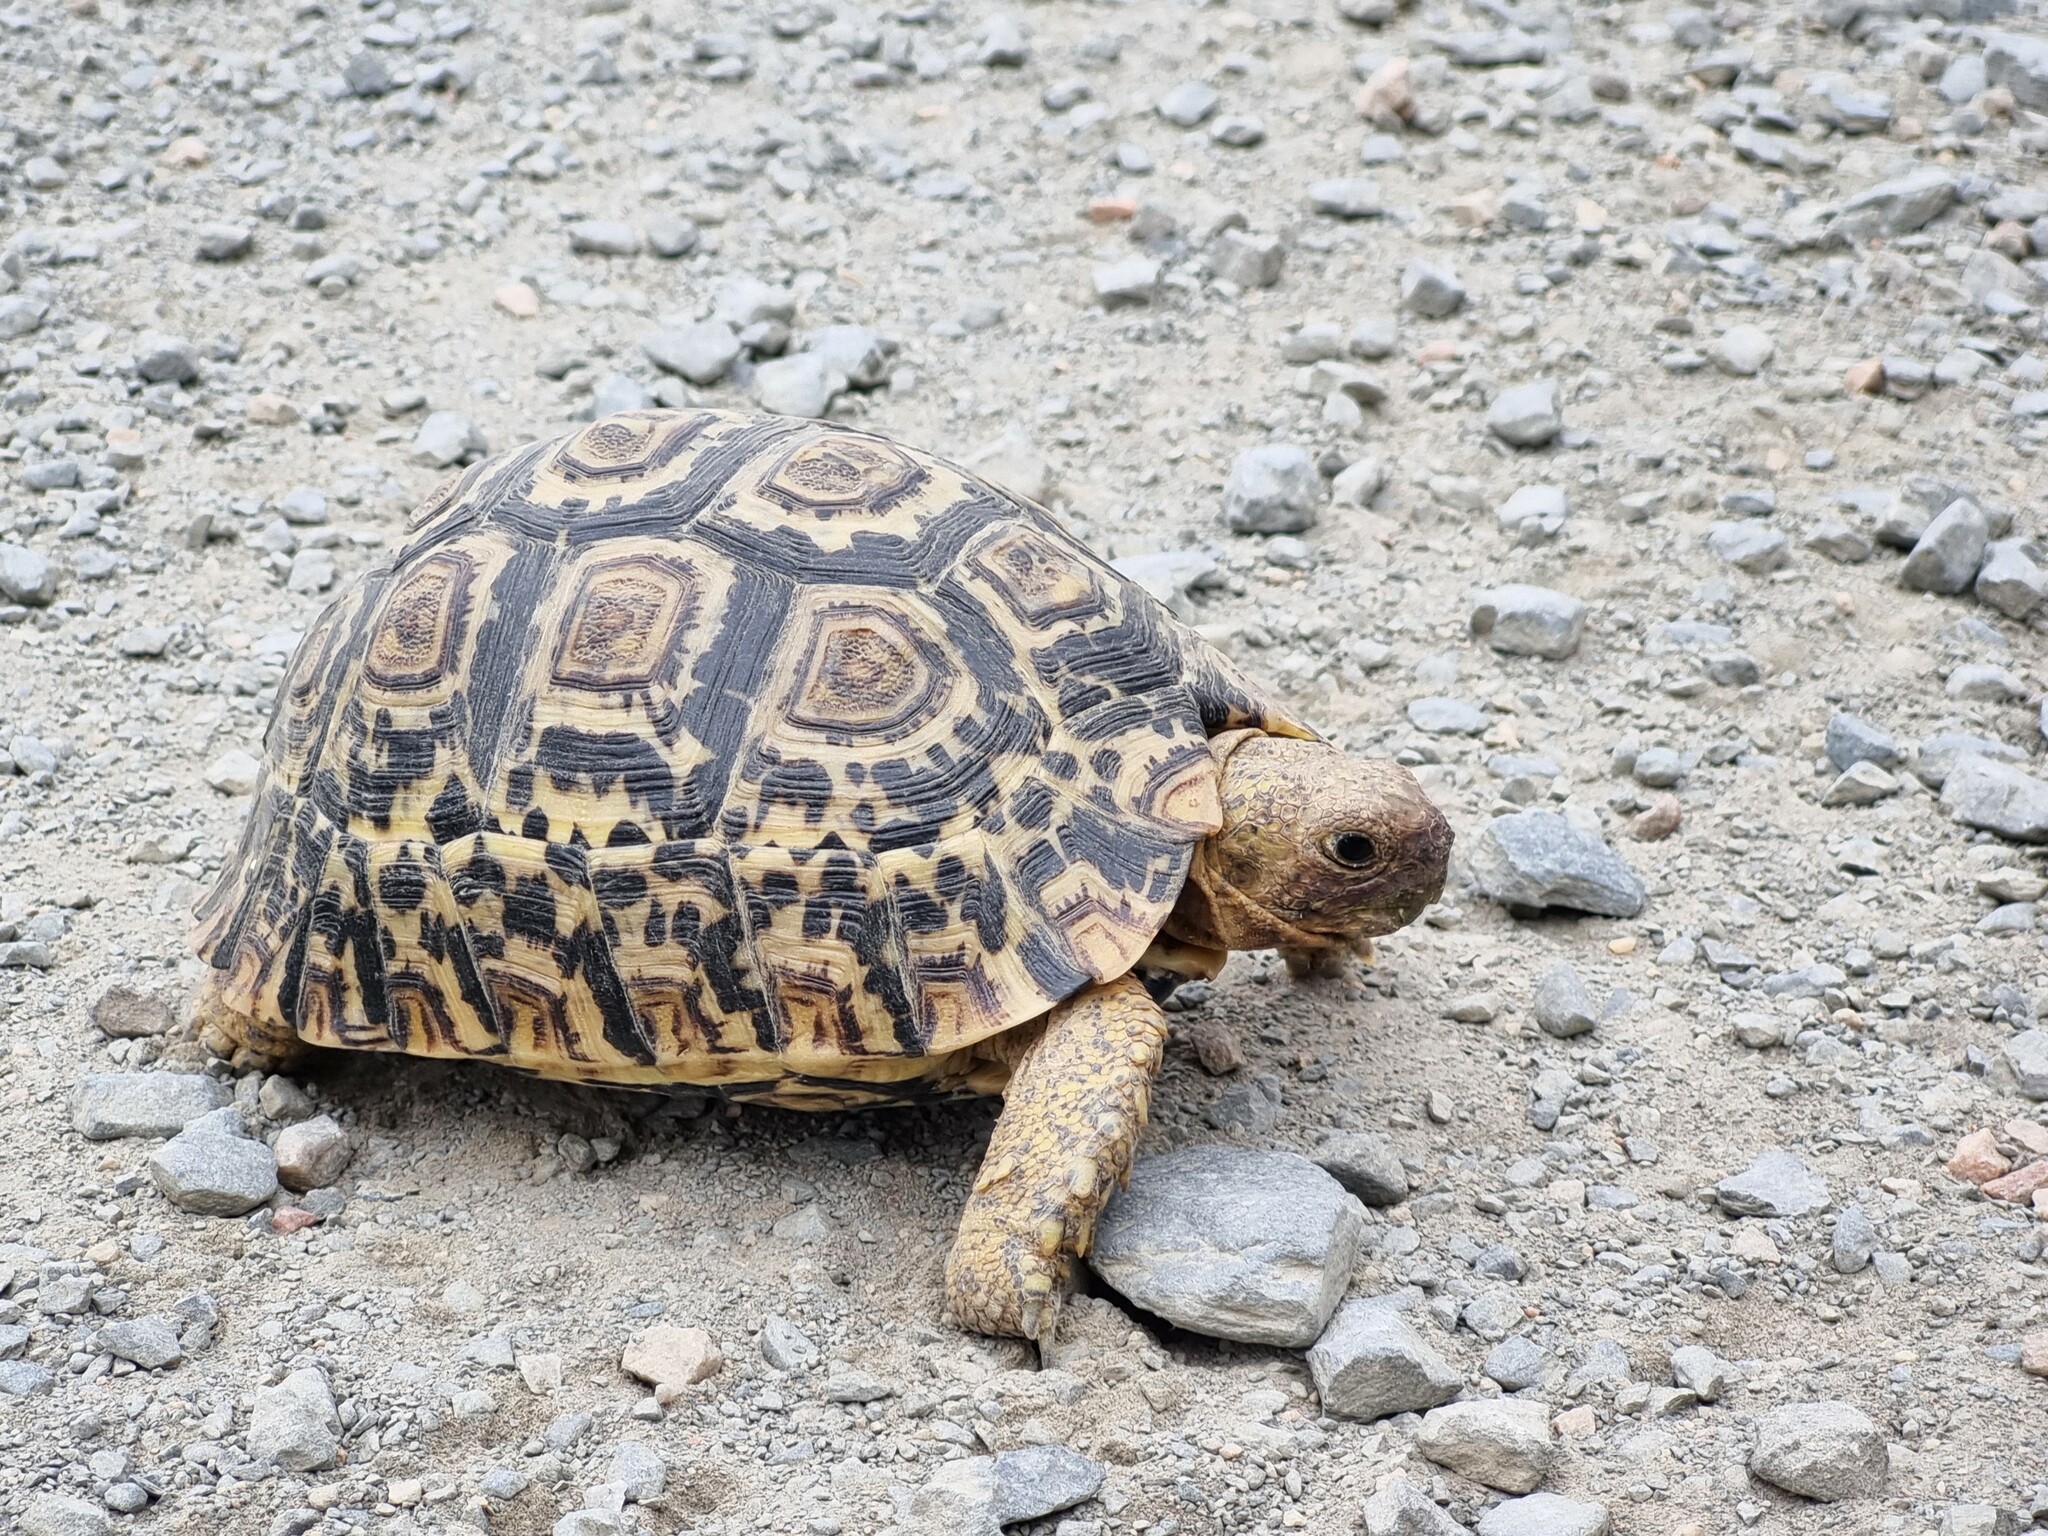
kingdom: Animalia
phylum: Chordata
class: Testudines
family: Testudinidae
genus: Stigmochelys
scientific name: Stigmochelys pardalis
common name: Leopard tortoise
